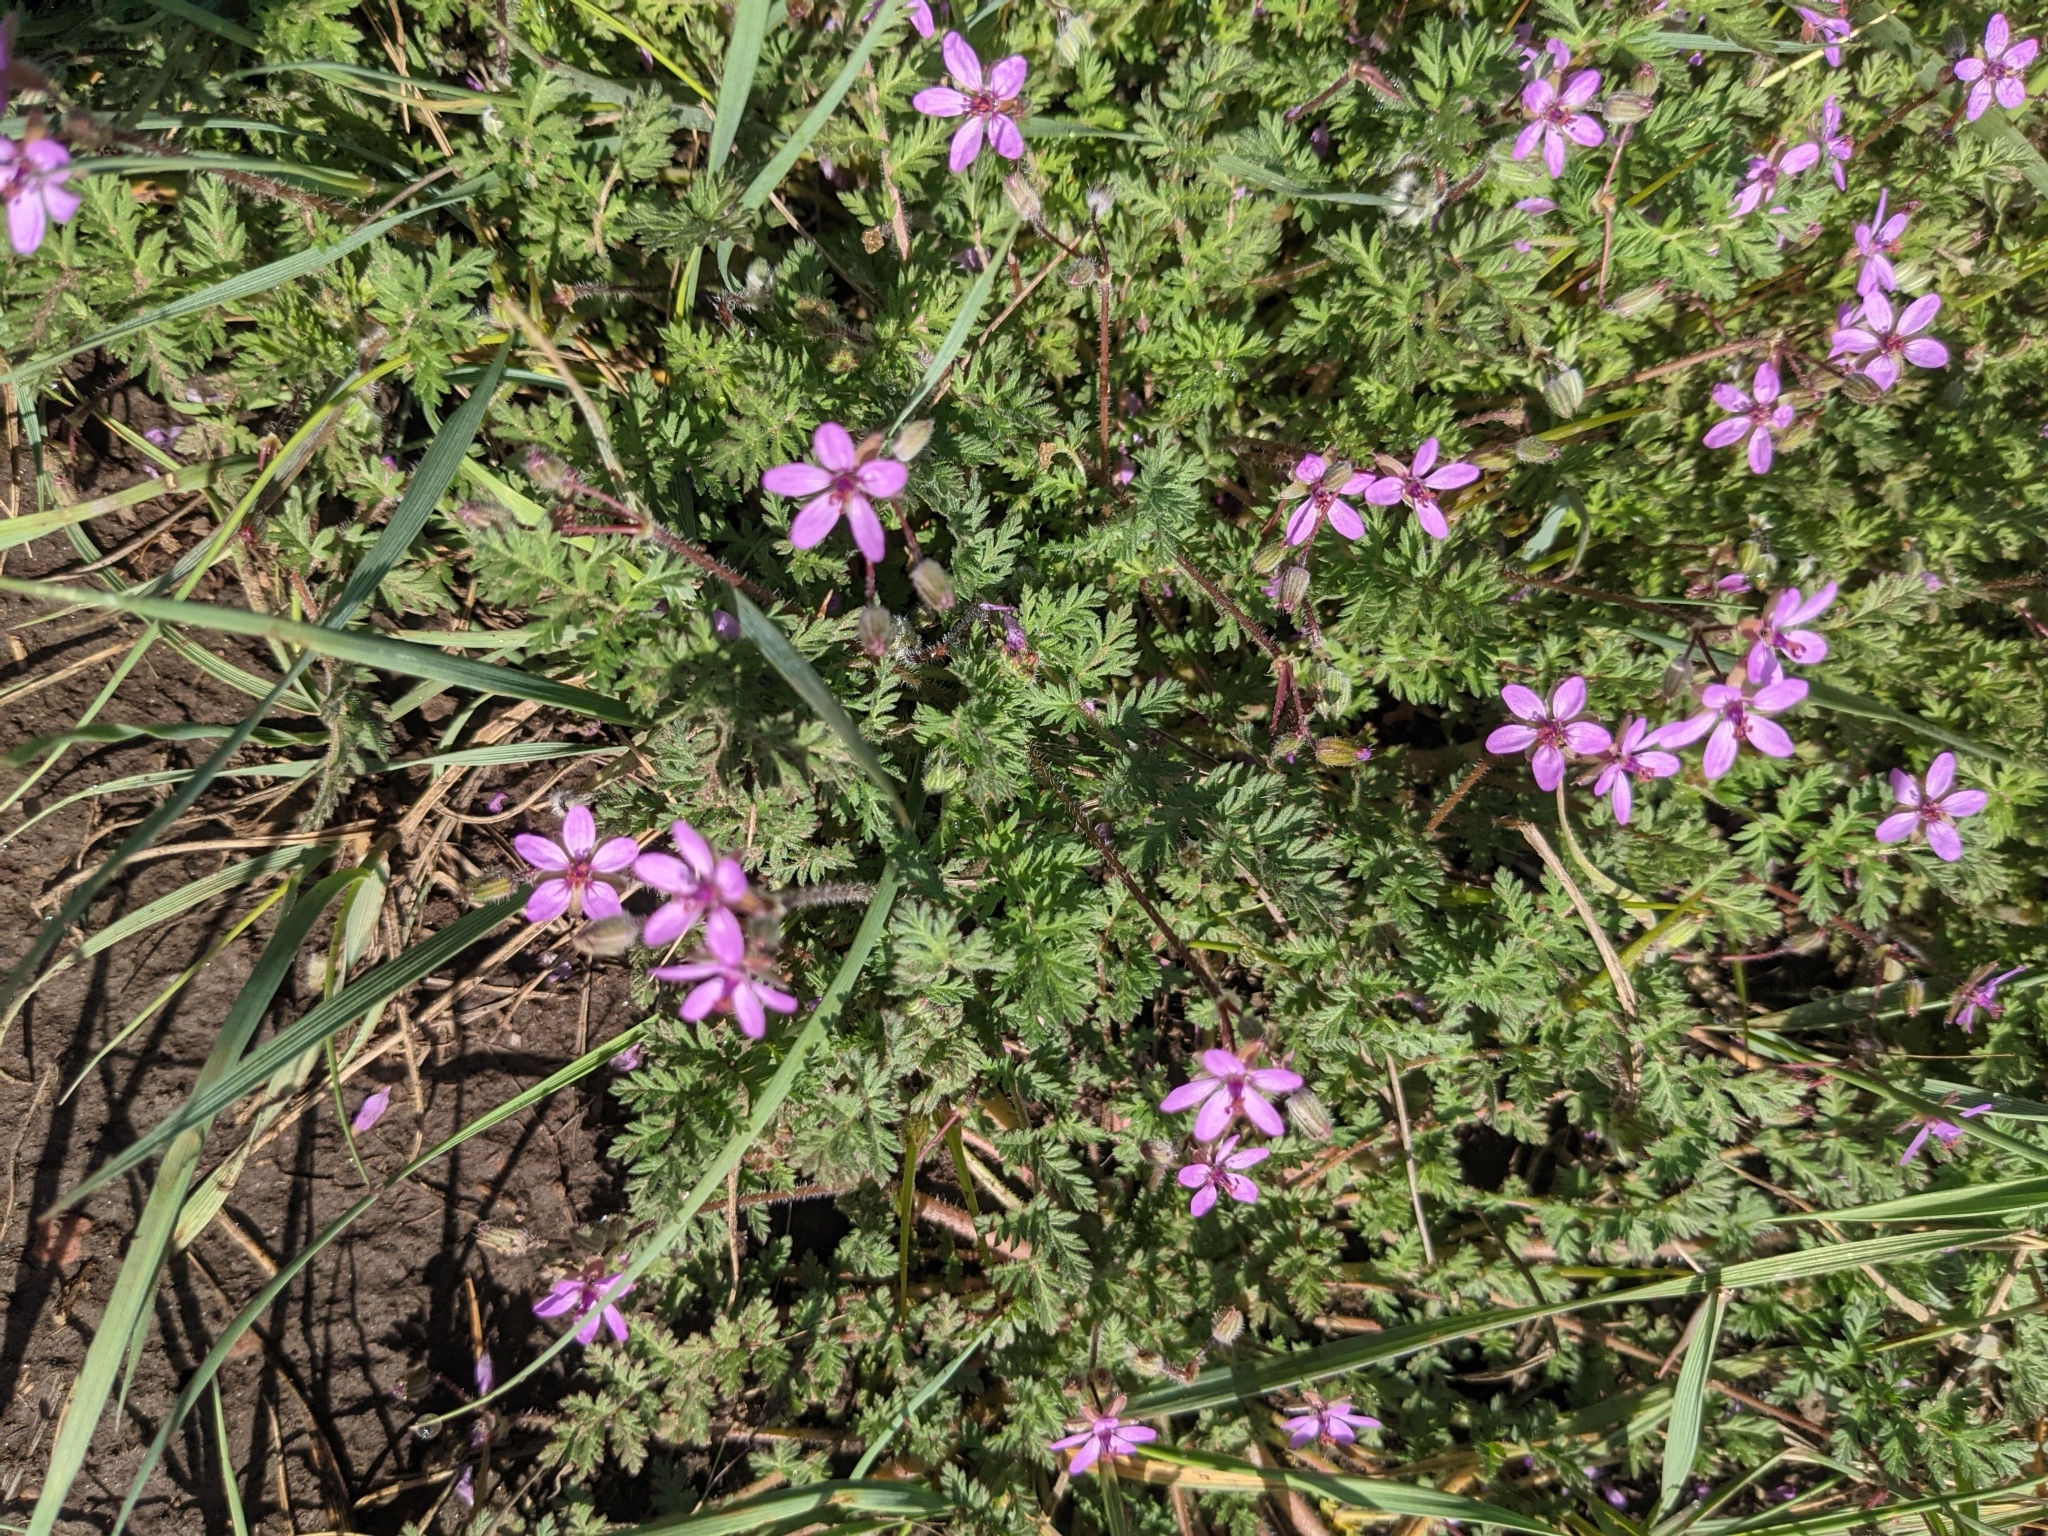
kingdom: Plantae
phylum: Tracheophyta
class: Magnoliopsida
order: Geraniales
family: Geraniaceae
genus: Erodium
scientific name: Erodium cicutarium
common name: Common stork's-bill
